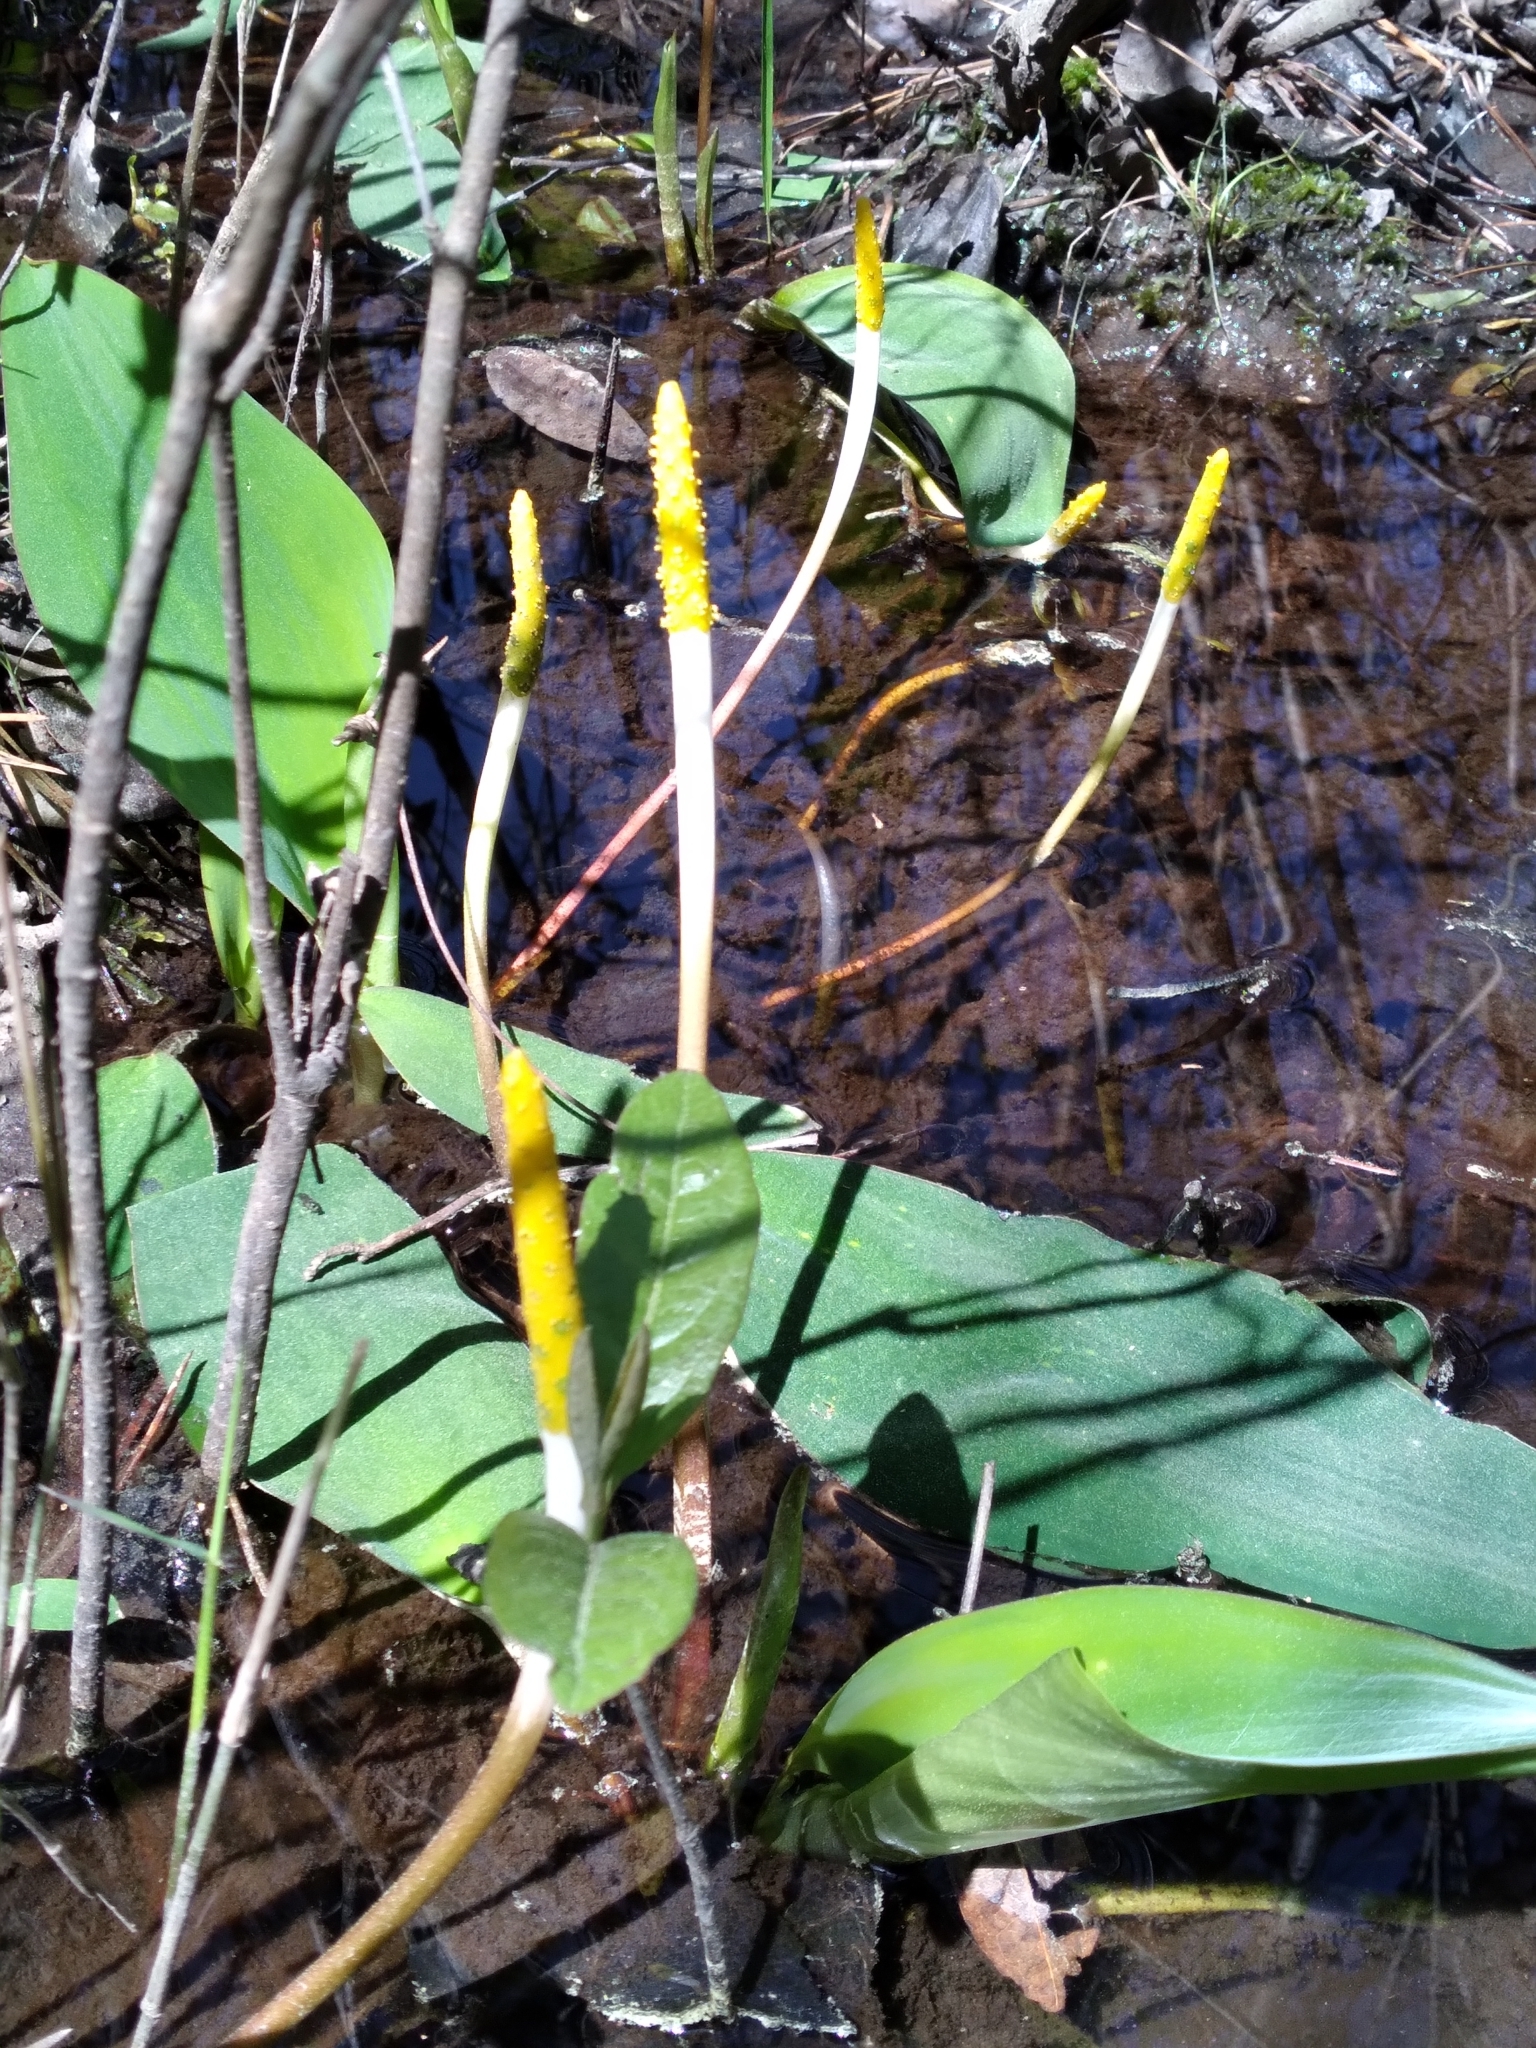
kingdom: Plantae
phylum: Tracheophyta
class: Liliopsida
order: Alismatales
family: Araceae
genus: Orontium
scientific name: Orontium aquaticum
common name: Golden-club
